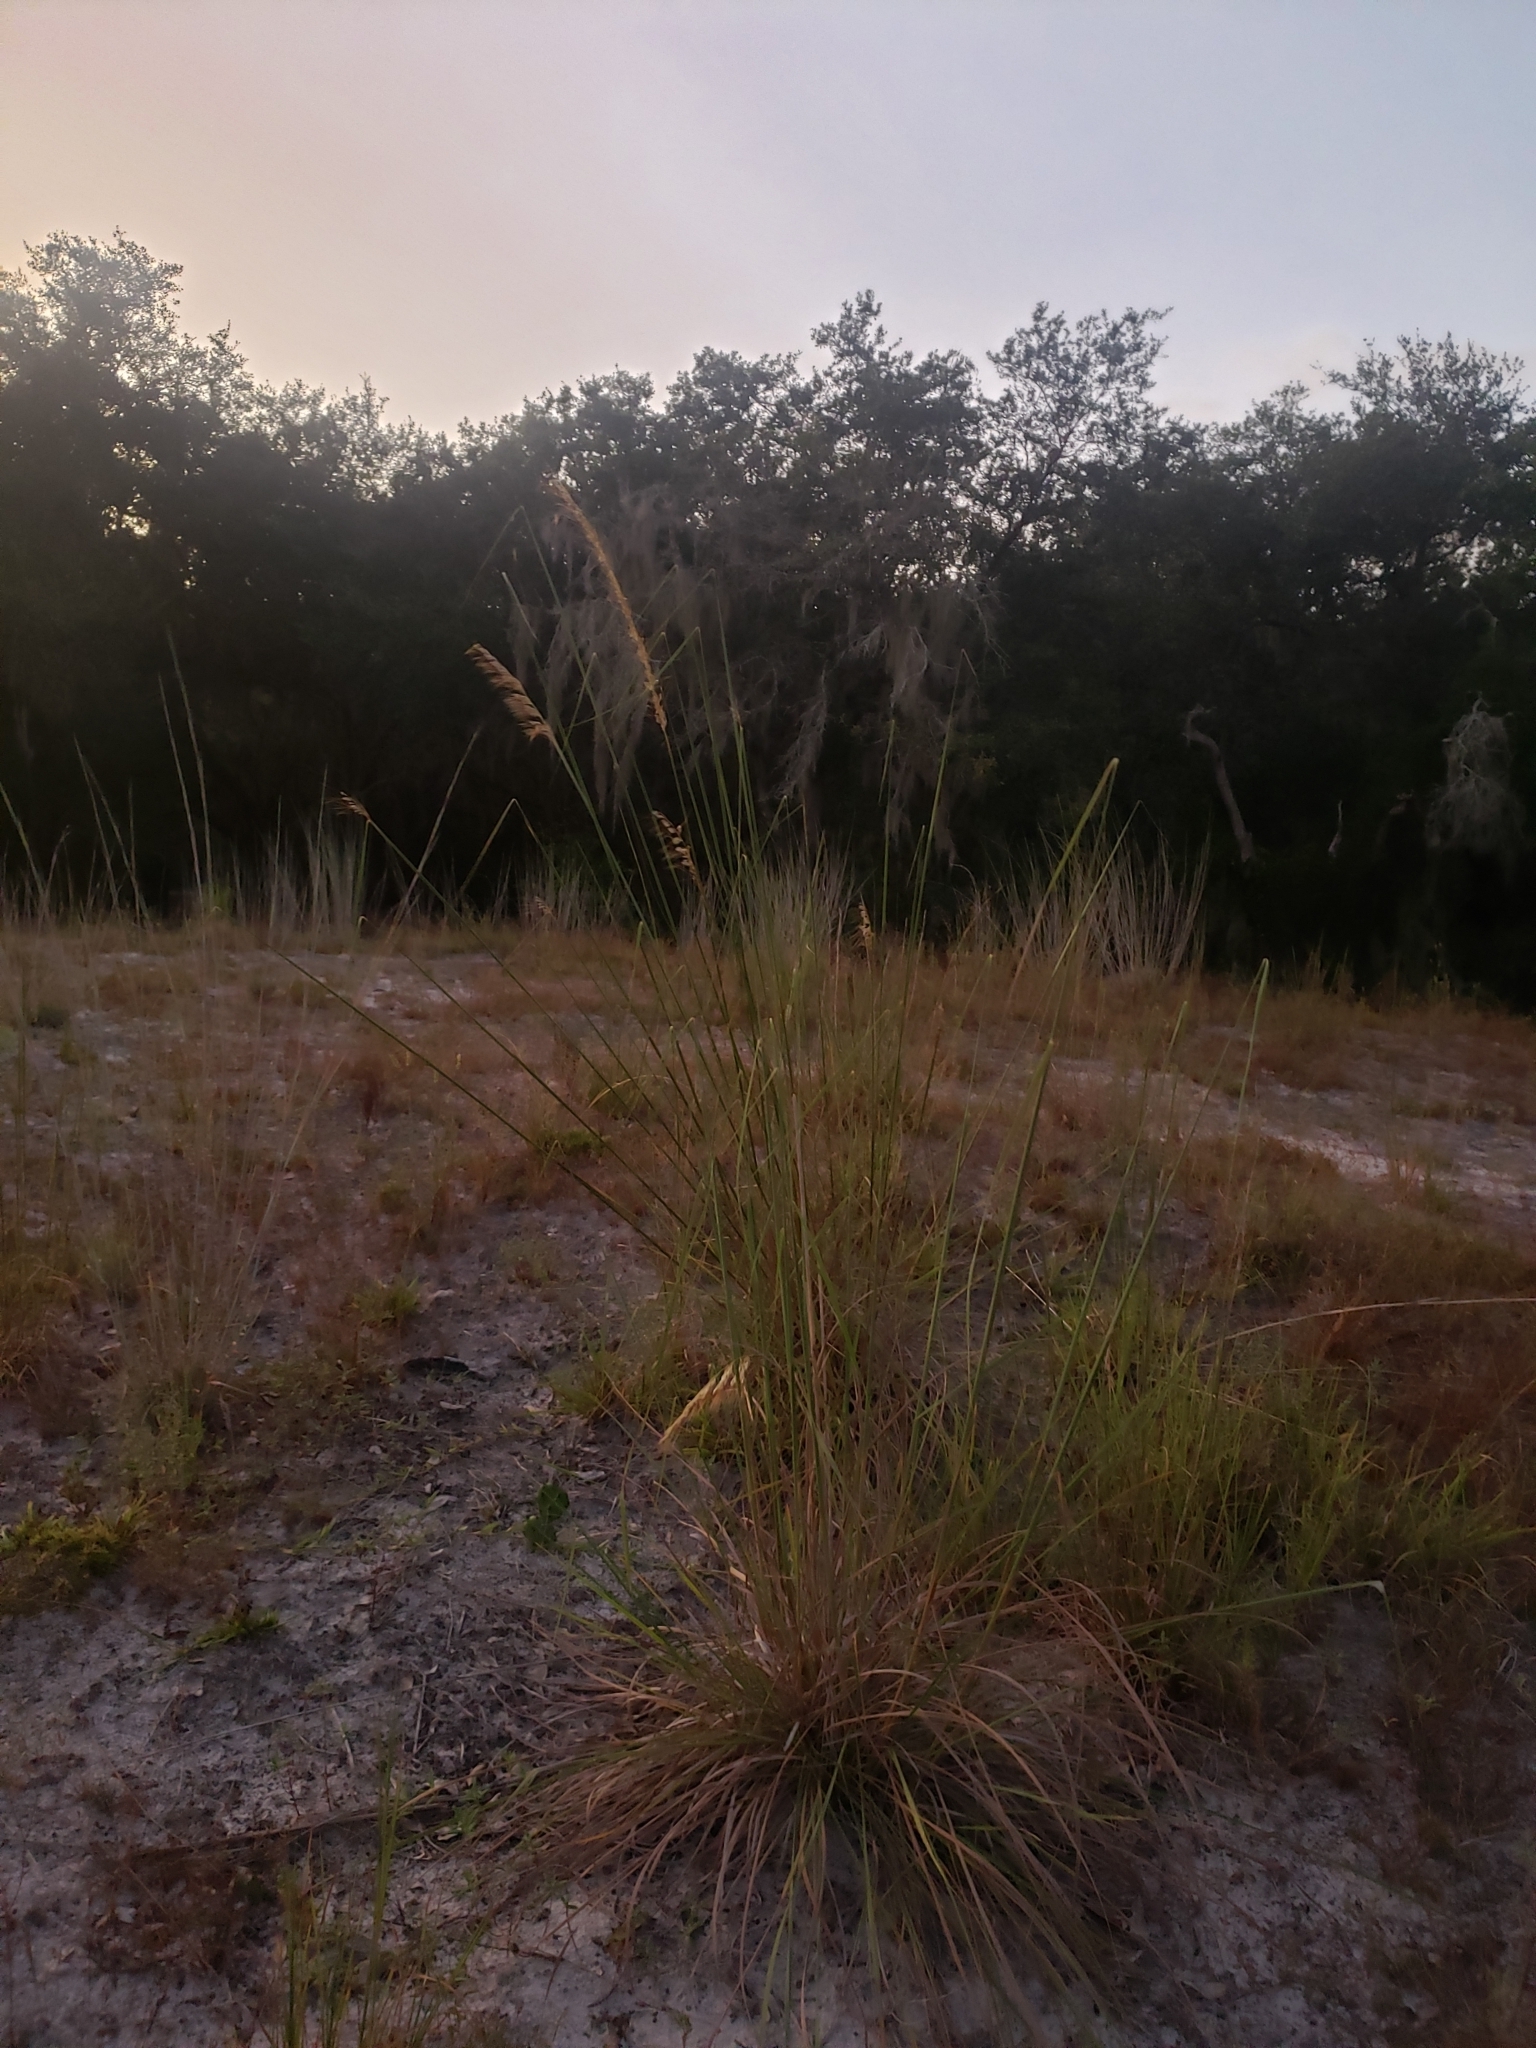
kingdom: Plantae
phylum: Tracheophyta
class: Liliopsida
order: Poales
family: Poaceae
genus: Sorghastrum
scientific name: Sorghastrum secundum
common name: Lopsided indian grass
